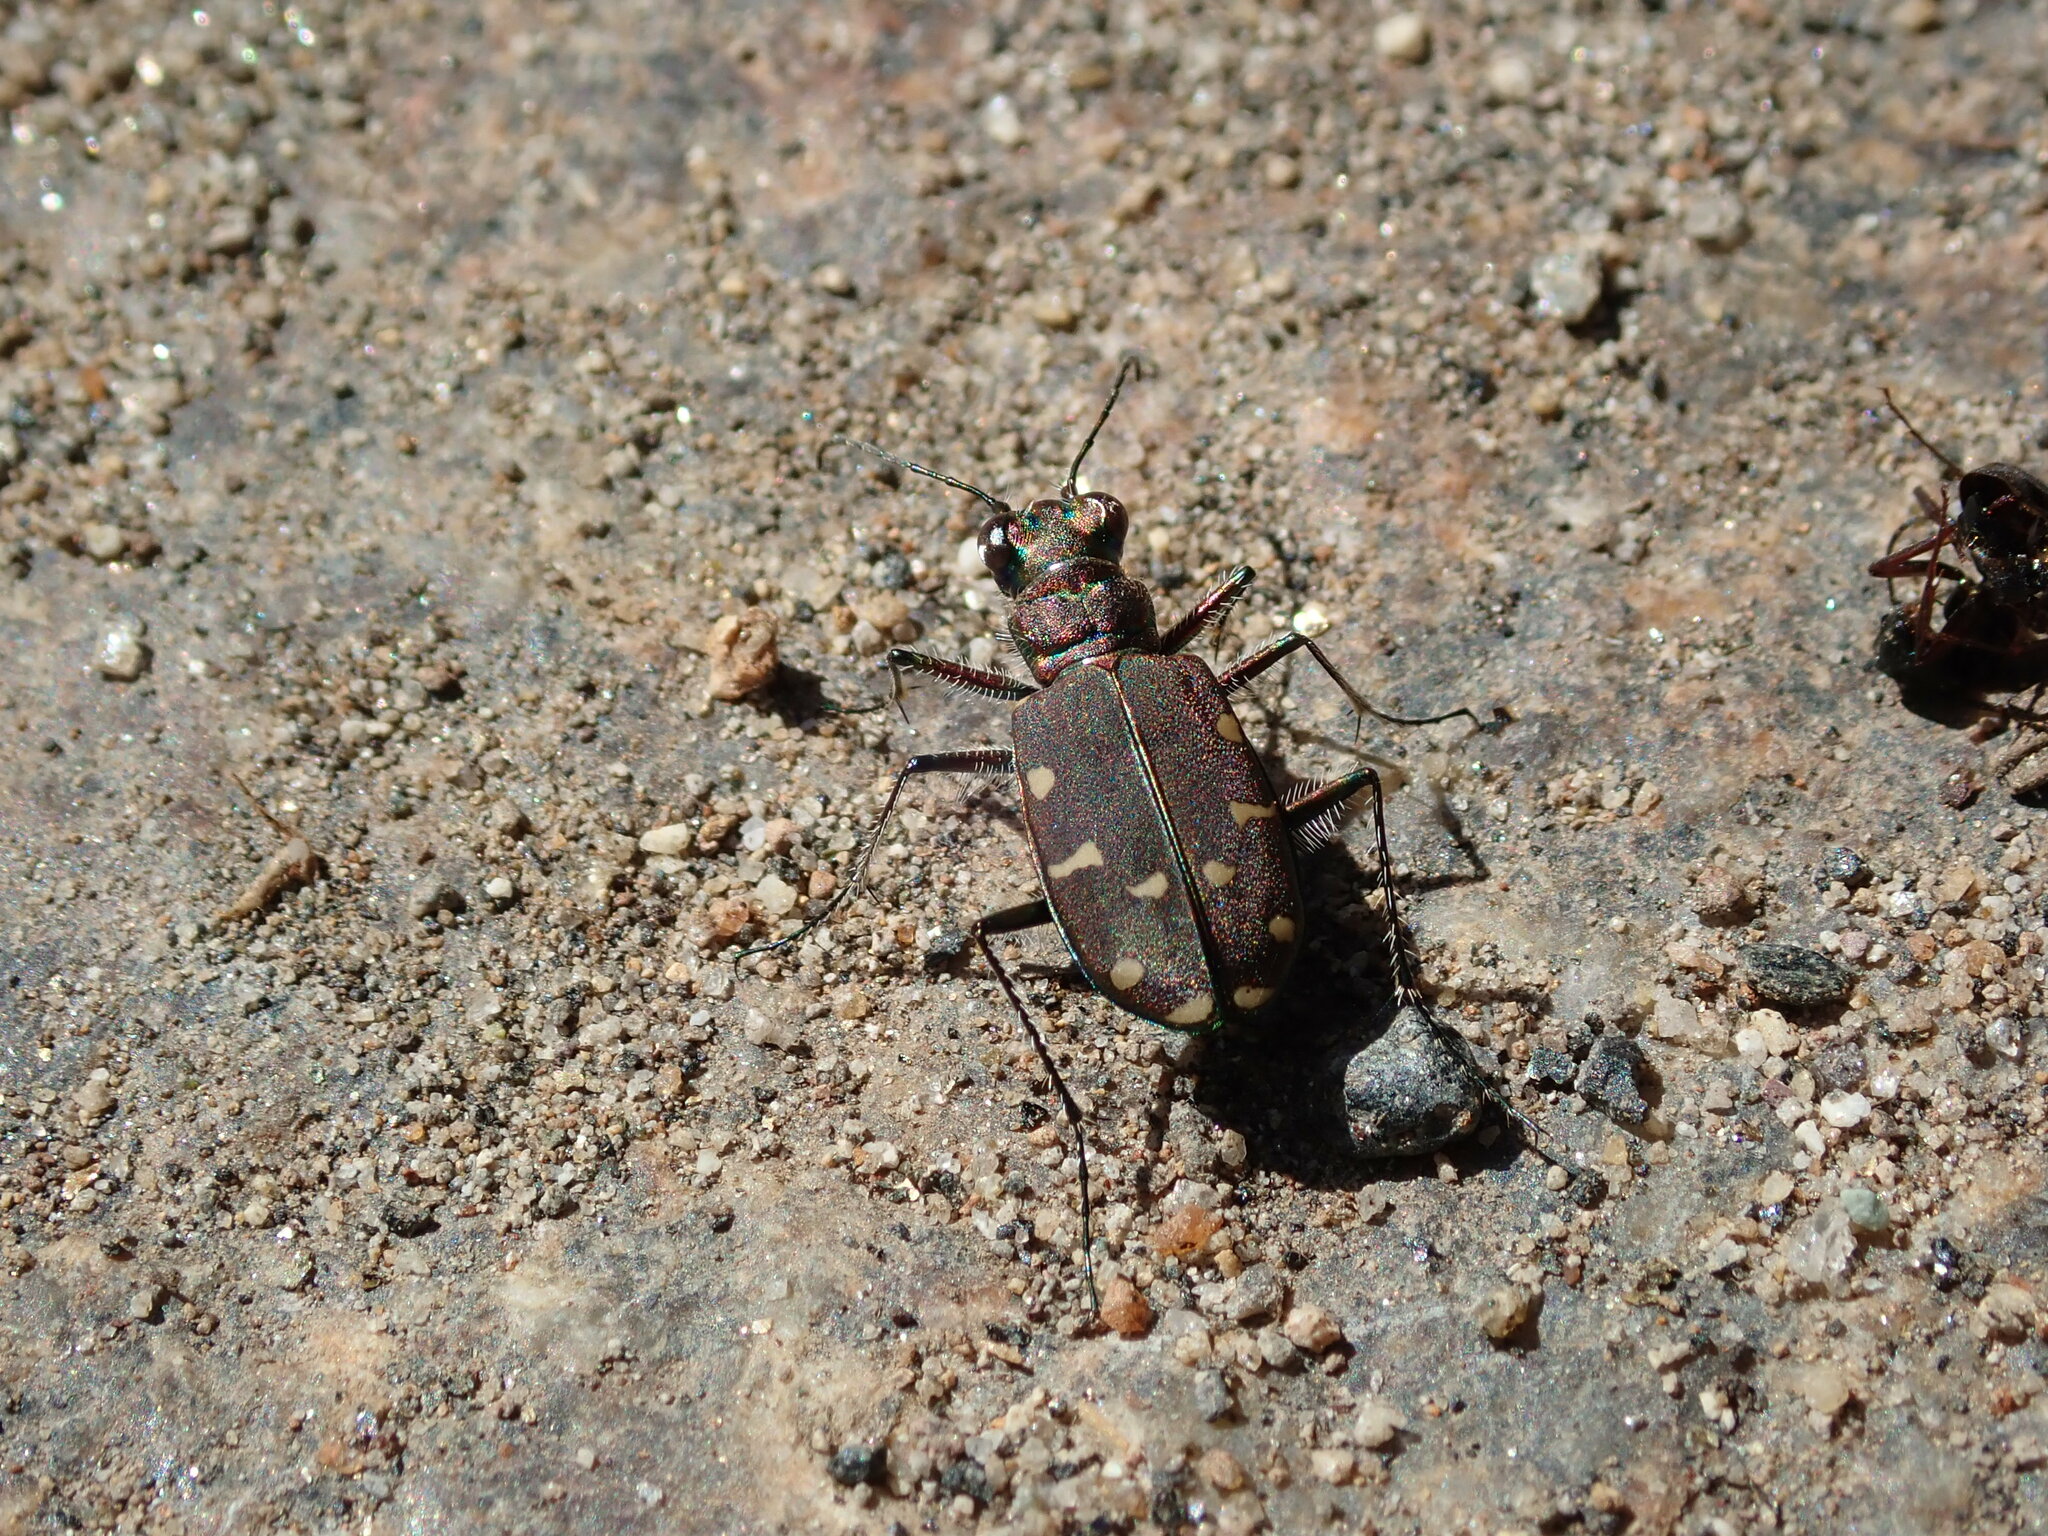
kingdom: Animalia
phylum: Arthropoda
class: Insecta
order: Coleoptera
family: Carabidae
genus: Cicindela
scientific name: Cicindela oregona
